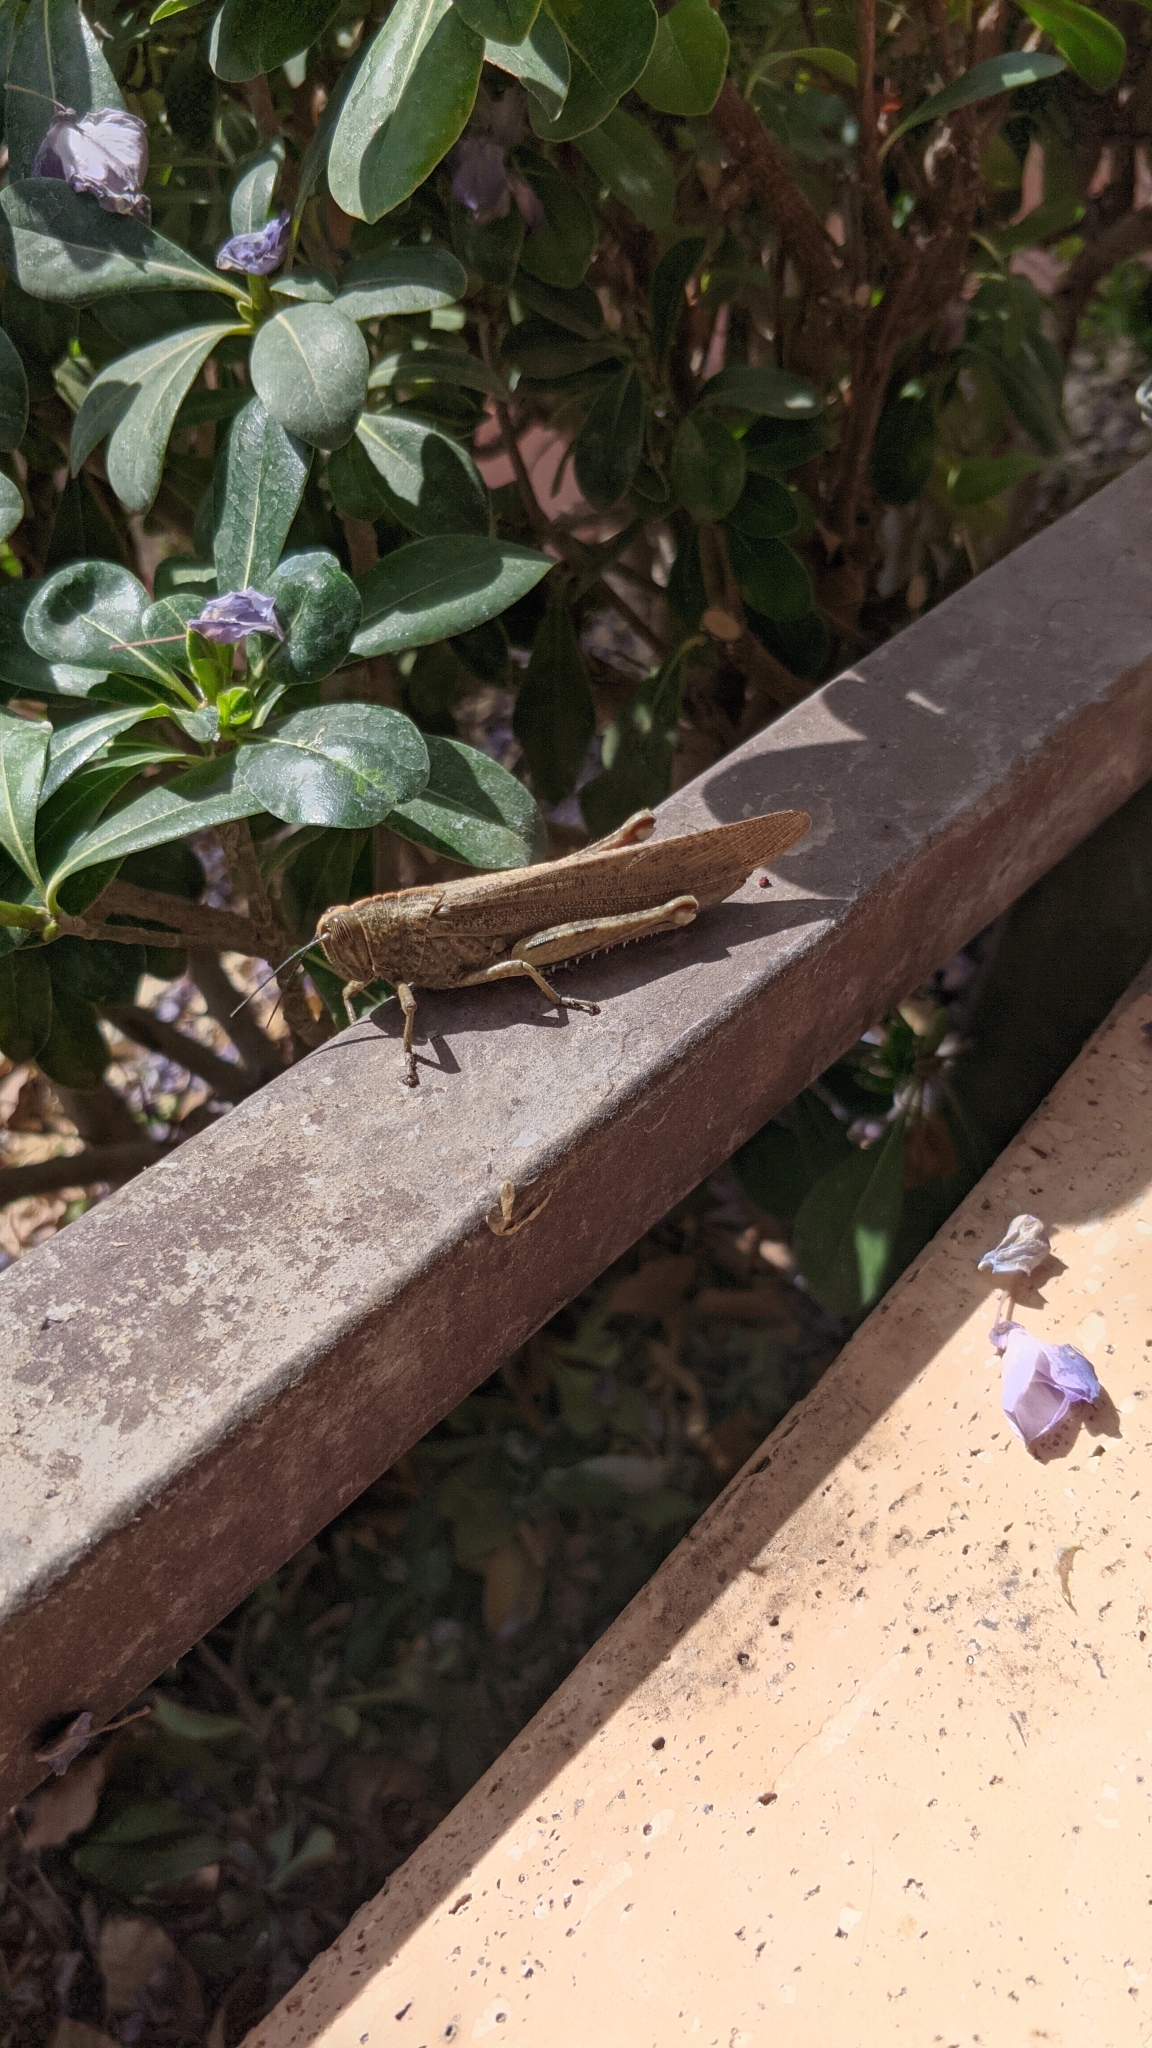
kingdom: Animalia
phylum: Arthropoda
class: Insecta
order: Orthoptera
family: Acrididae
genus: Anacridium
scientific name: Anacridium aegyptium
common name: Egyptian grasshopper
